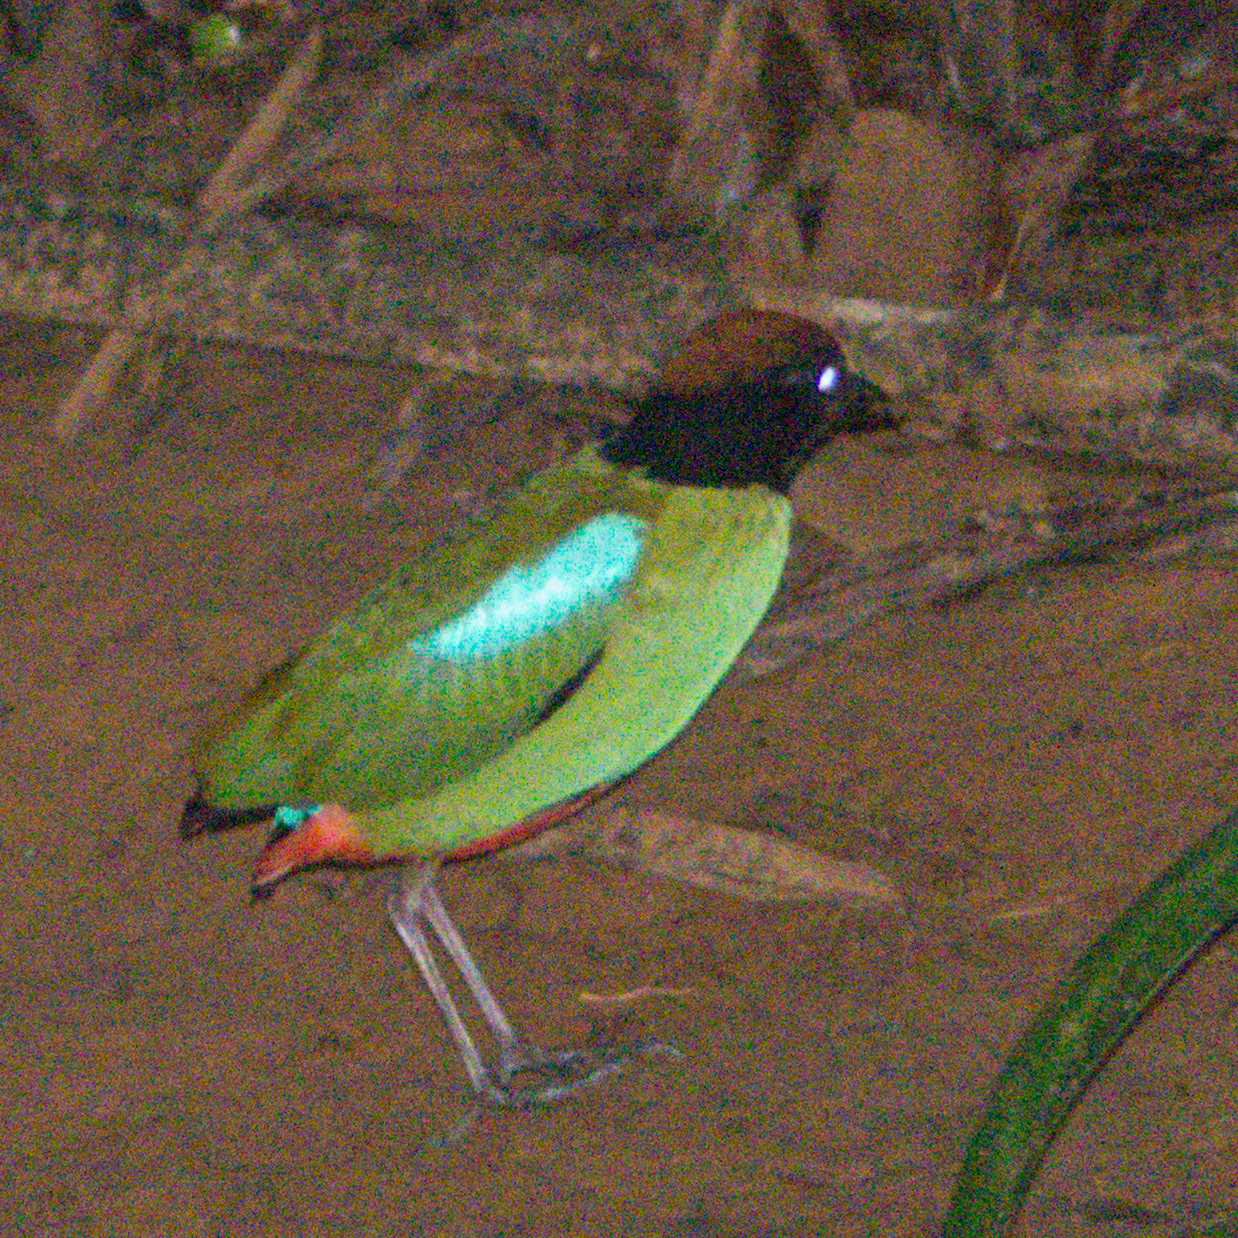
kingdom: Animalia
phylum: Chordata
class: Aves
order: Passeriformes
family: Pittidae
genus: Pitta
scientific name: Pitta sordida
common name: Hooded pitta
